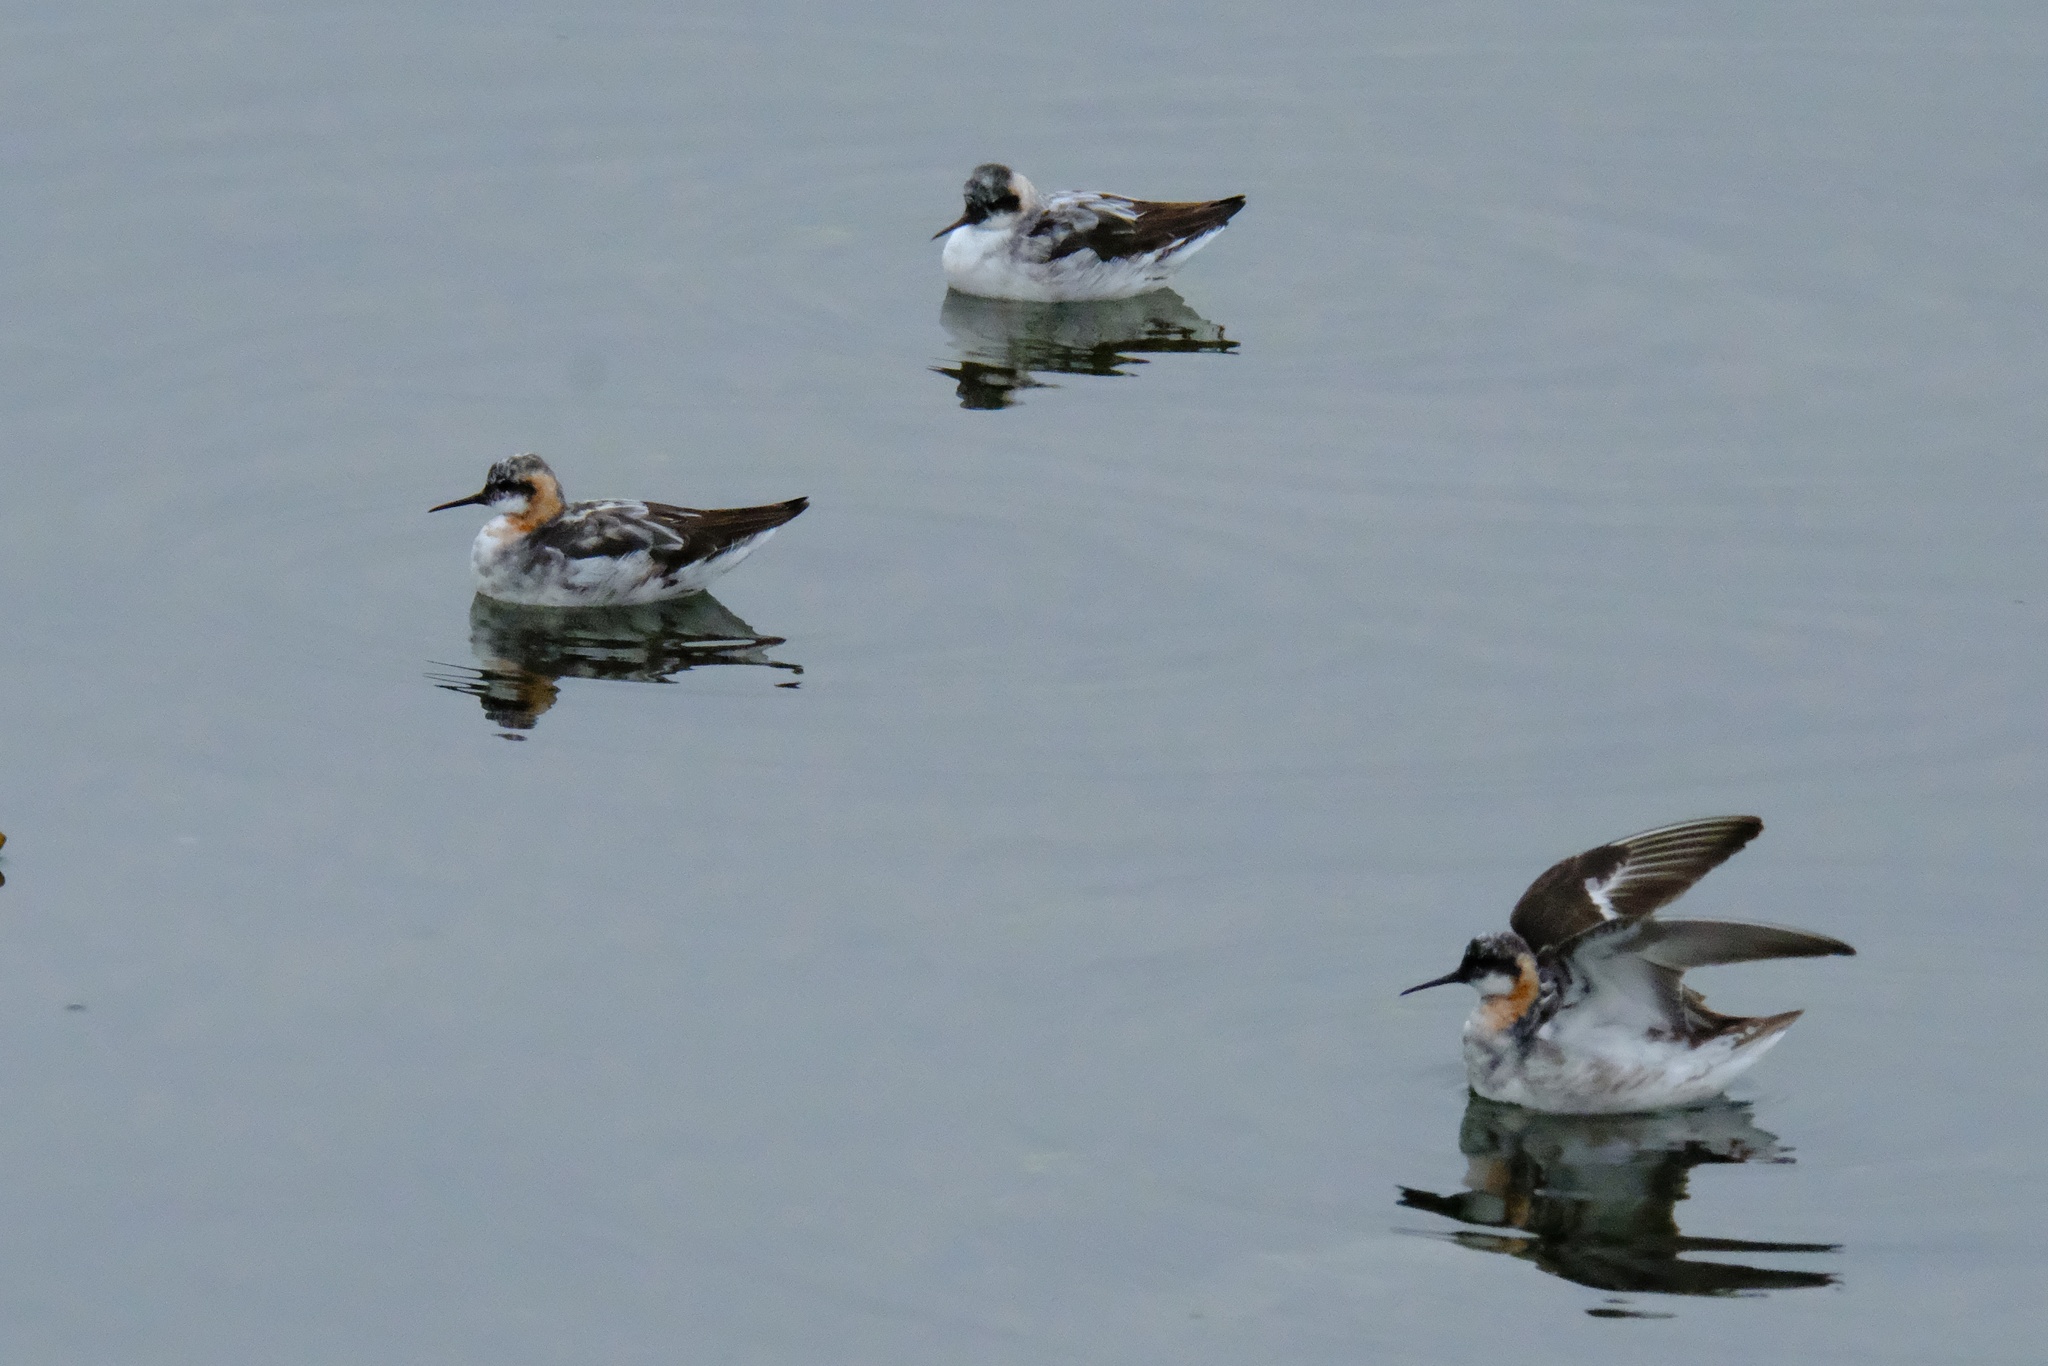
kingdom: Animalia
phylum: Chordata
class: Aves
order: Charadriiformes
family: Scolopacidae
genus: Phalaropus
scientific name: Phalaropus lobatus
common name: Red-necked phalarope
